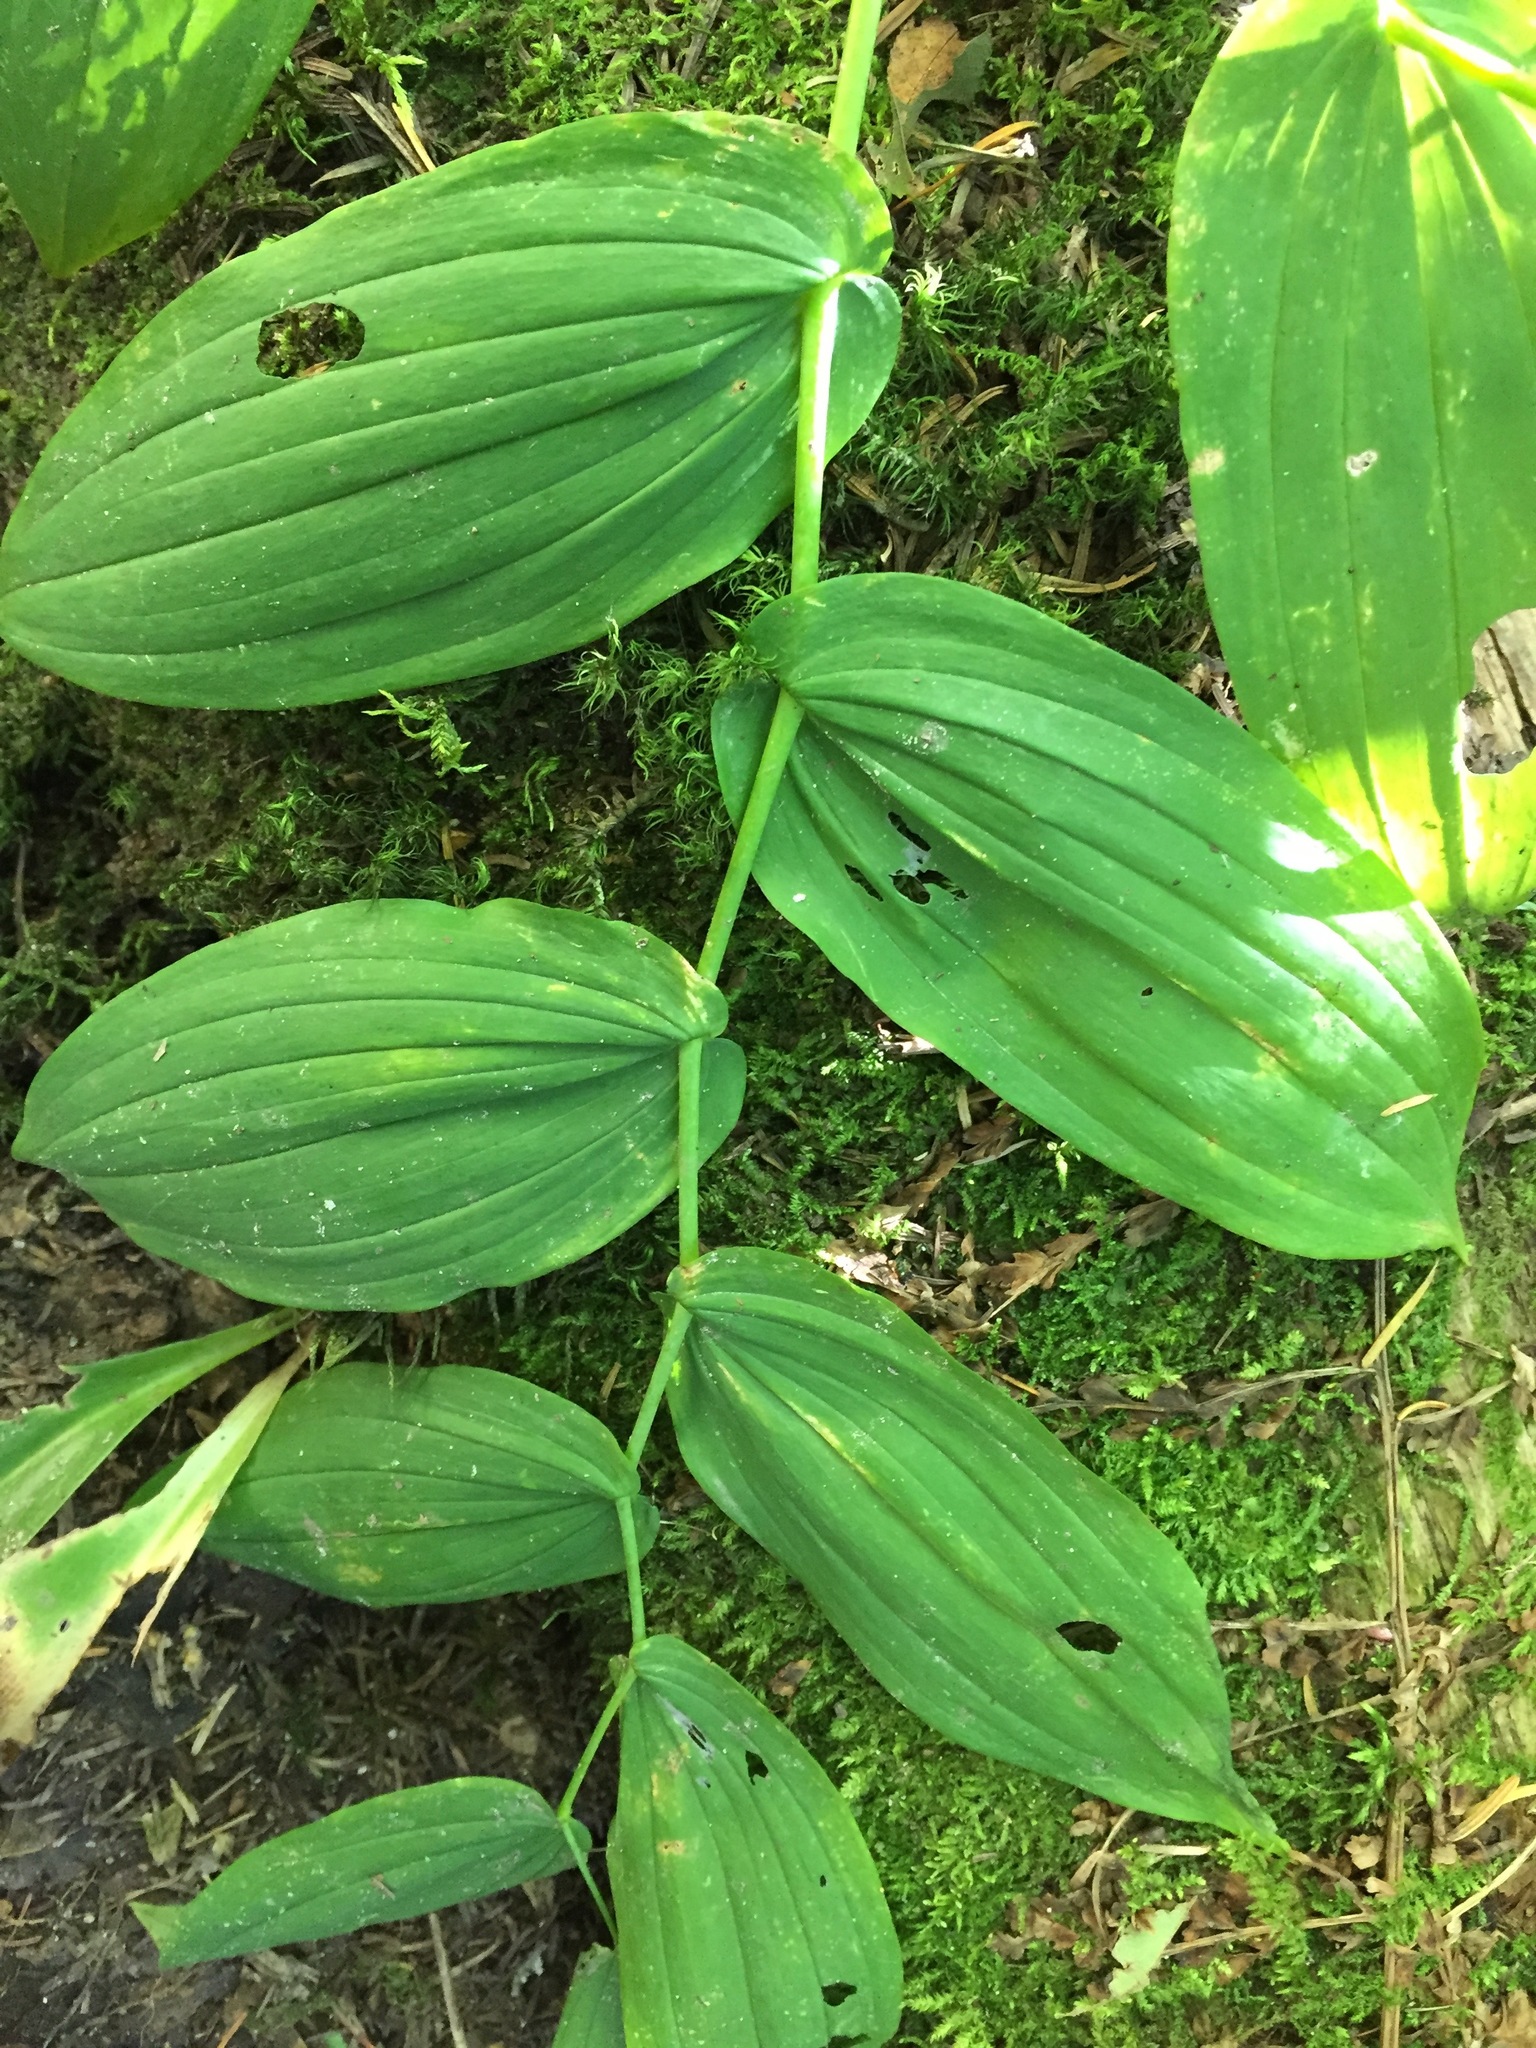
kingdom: Plantae
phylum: Tracheophyta
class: Liliopsida
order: Liliales
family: Liliaceae
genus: Streptopus
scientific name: Streptopus amplexifolius
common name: Clasp twisted stalk
